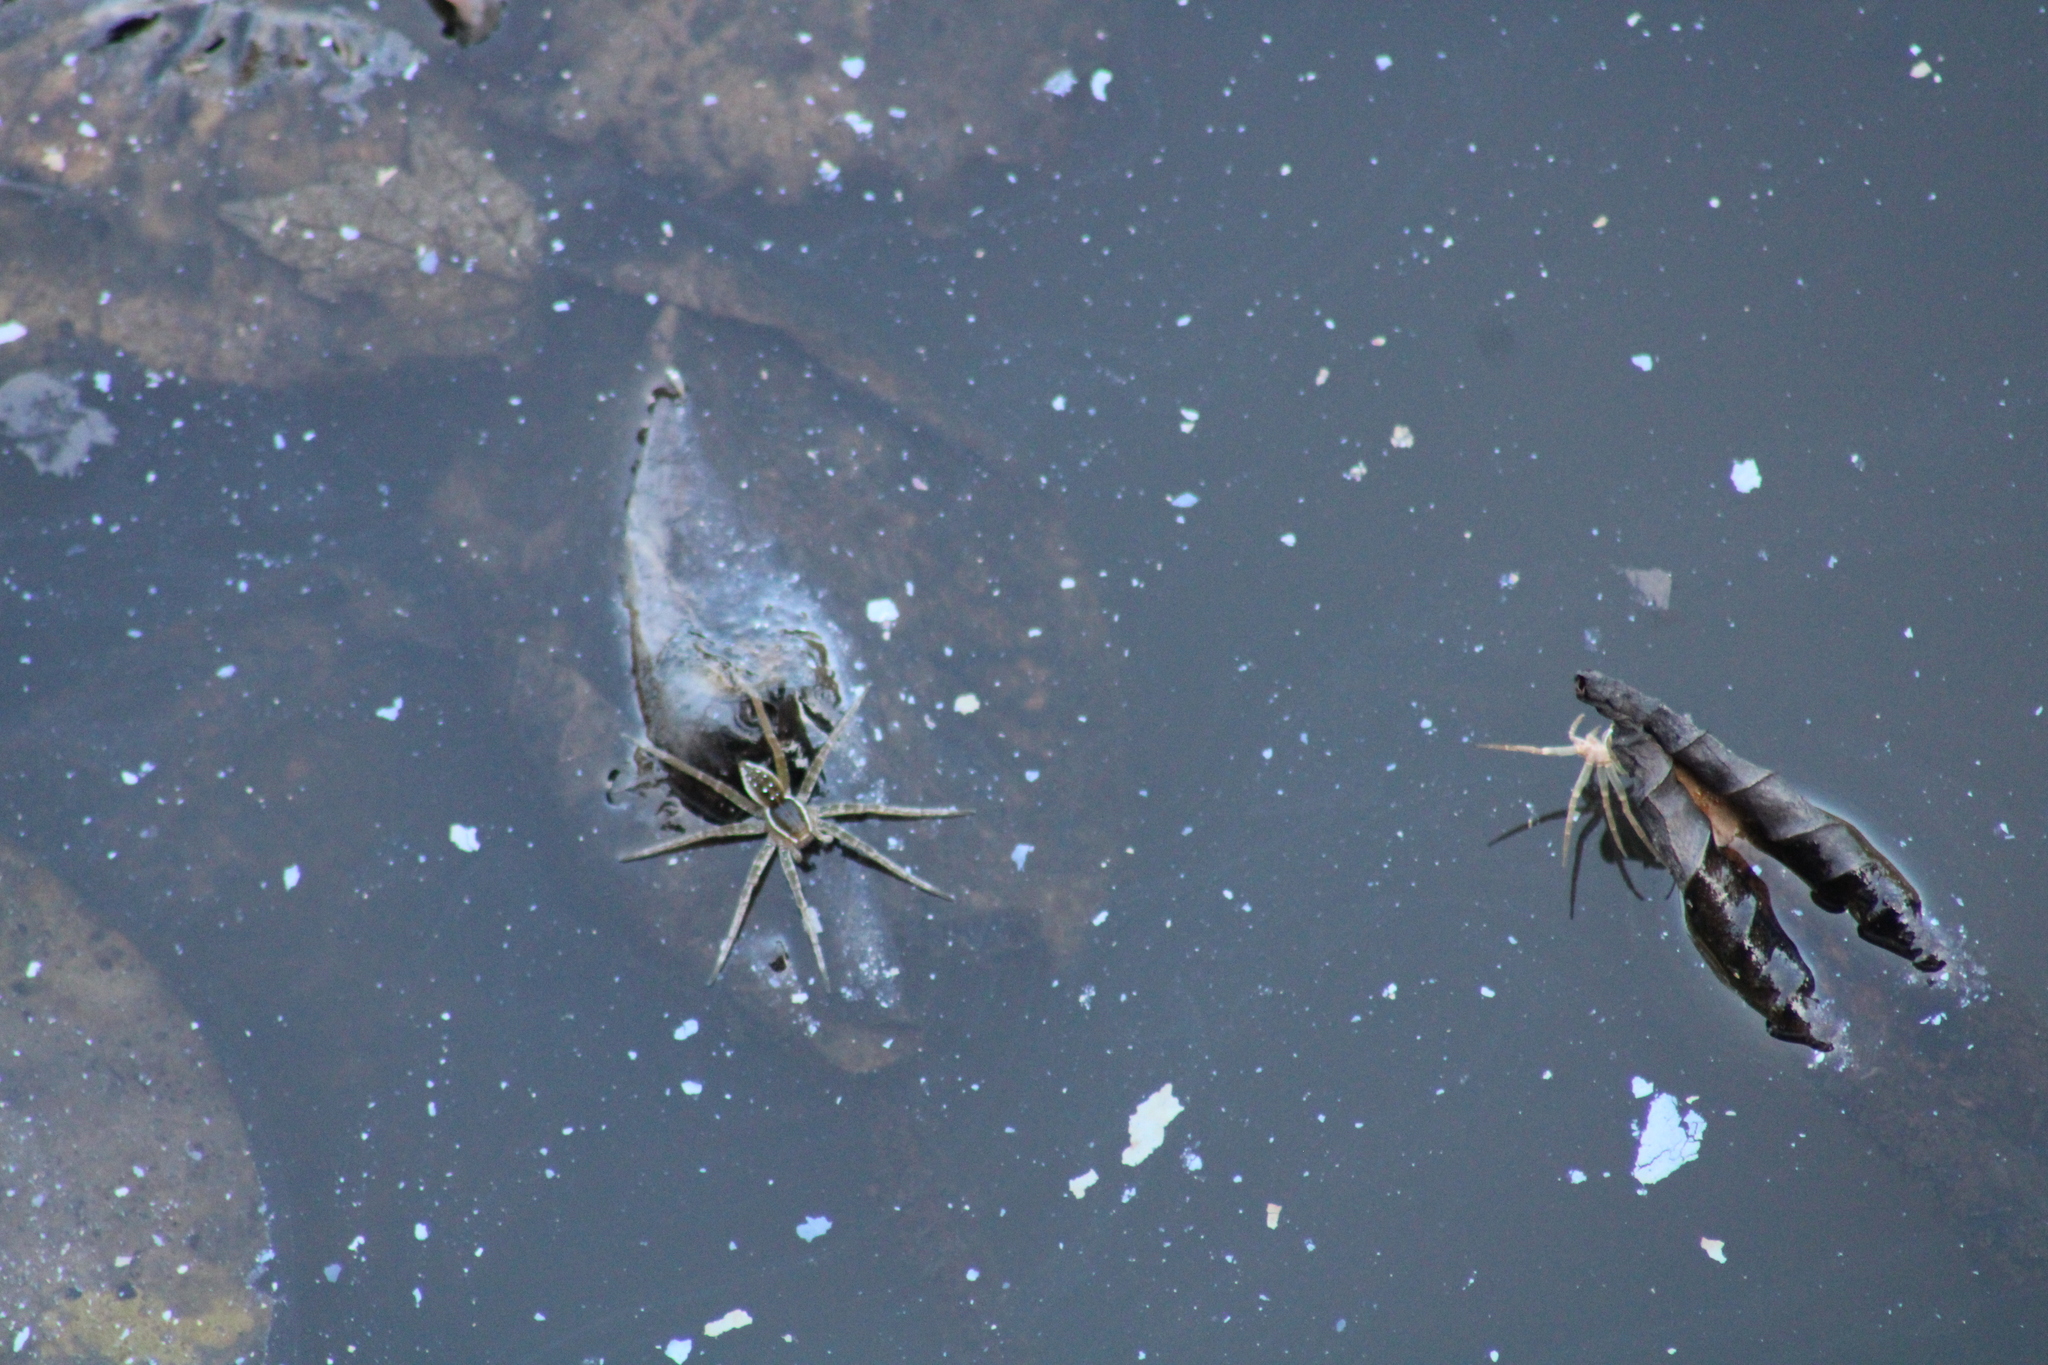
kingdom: Animalia
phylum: Arthropoda
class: Arachnida
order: Araneae
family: Pisauridae
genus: Dolomedes
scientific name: Dolomedes triton
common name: Six-spotted fishing spider
